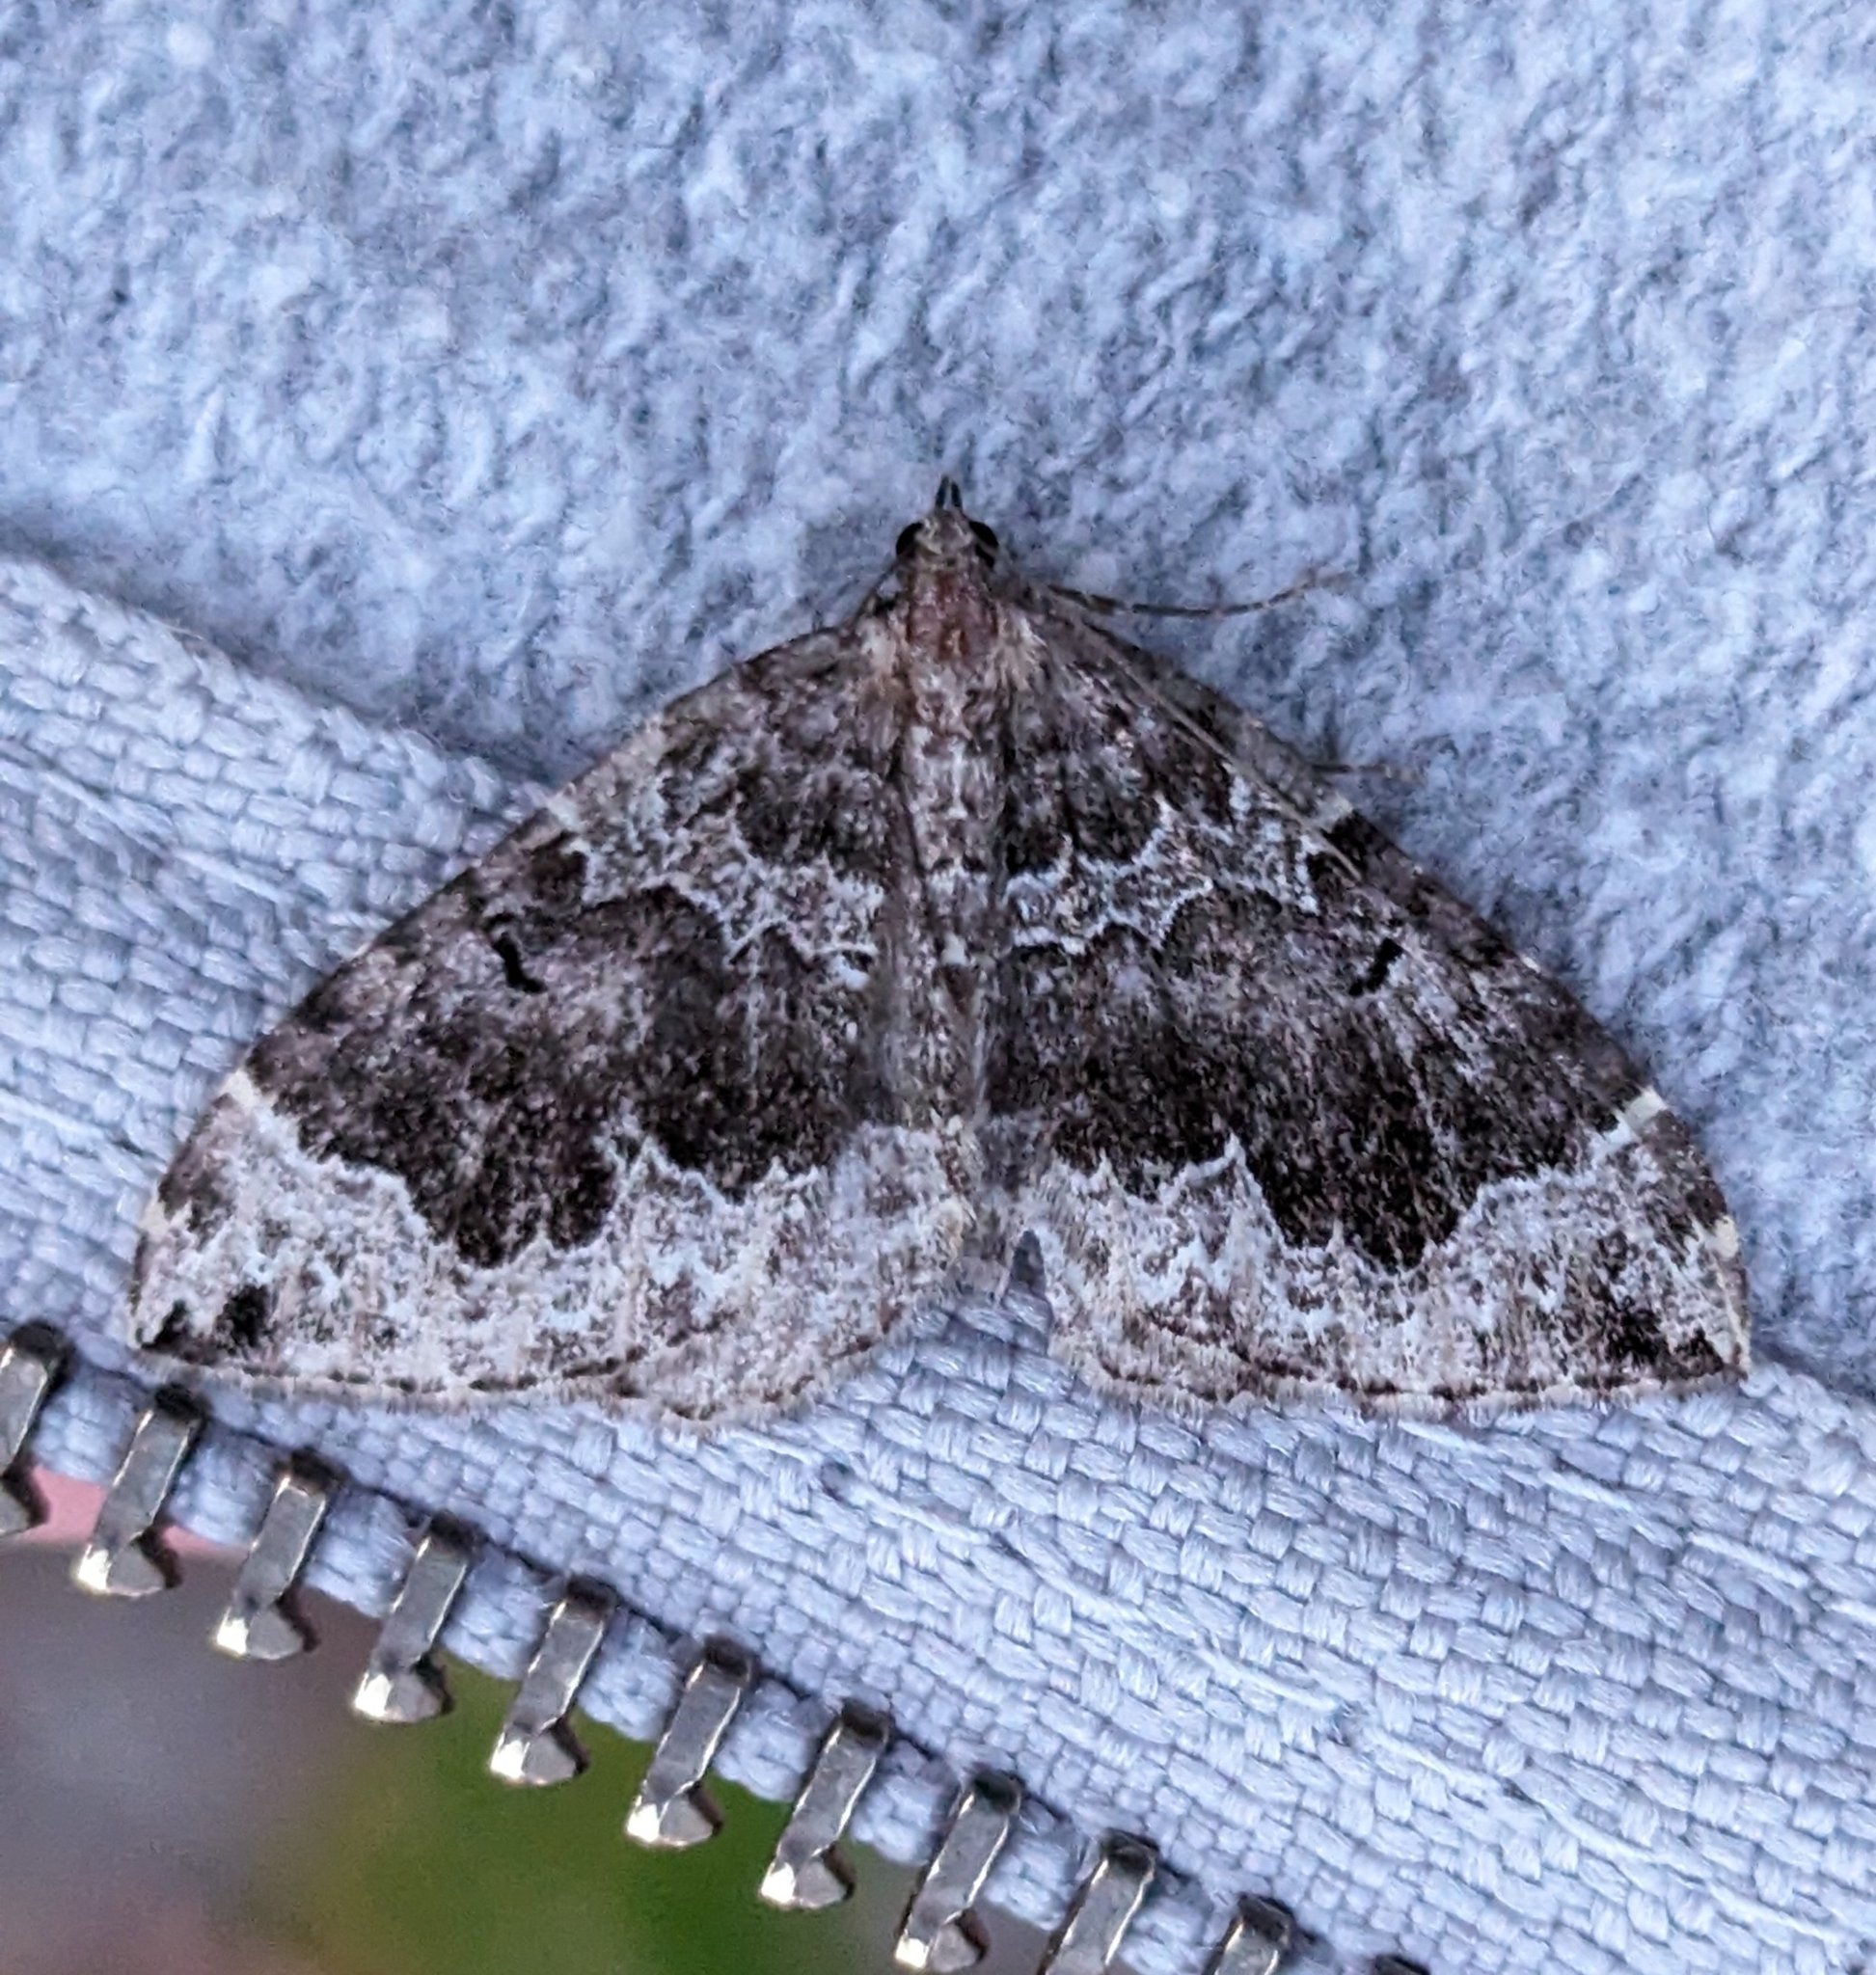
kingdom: Animalia
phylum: Arthropoda
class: Insecta
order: Lepidoptera
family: Geometridae
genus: Eustroma
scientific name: Eustroma semiatrata
